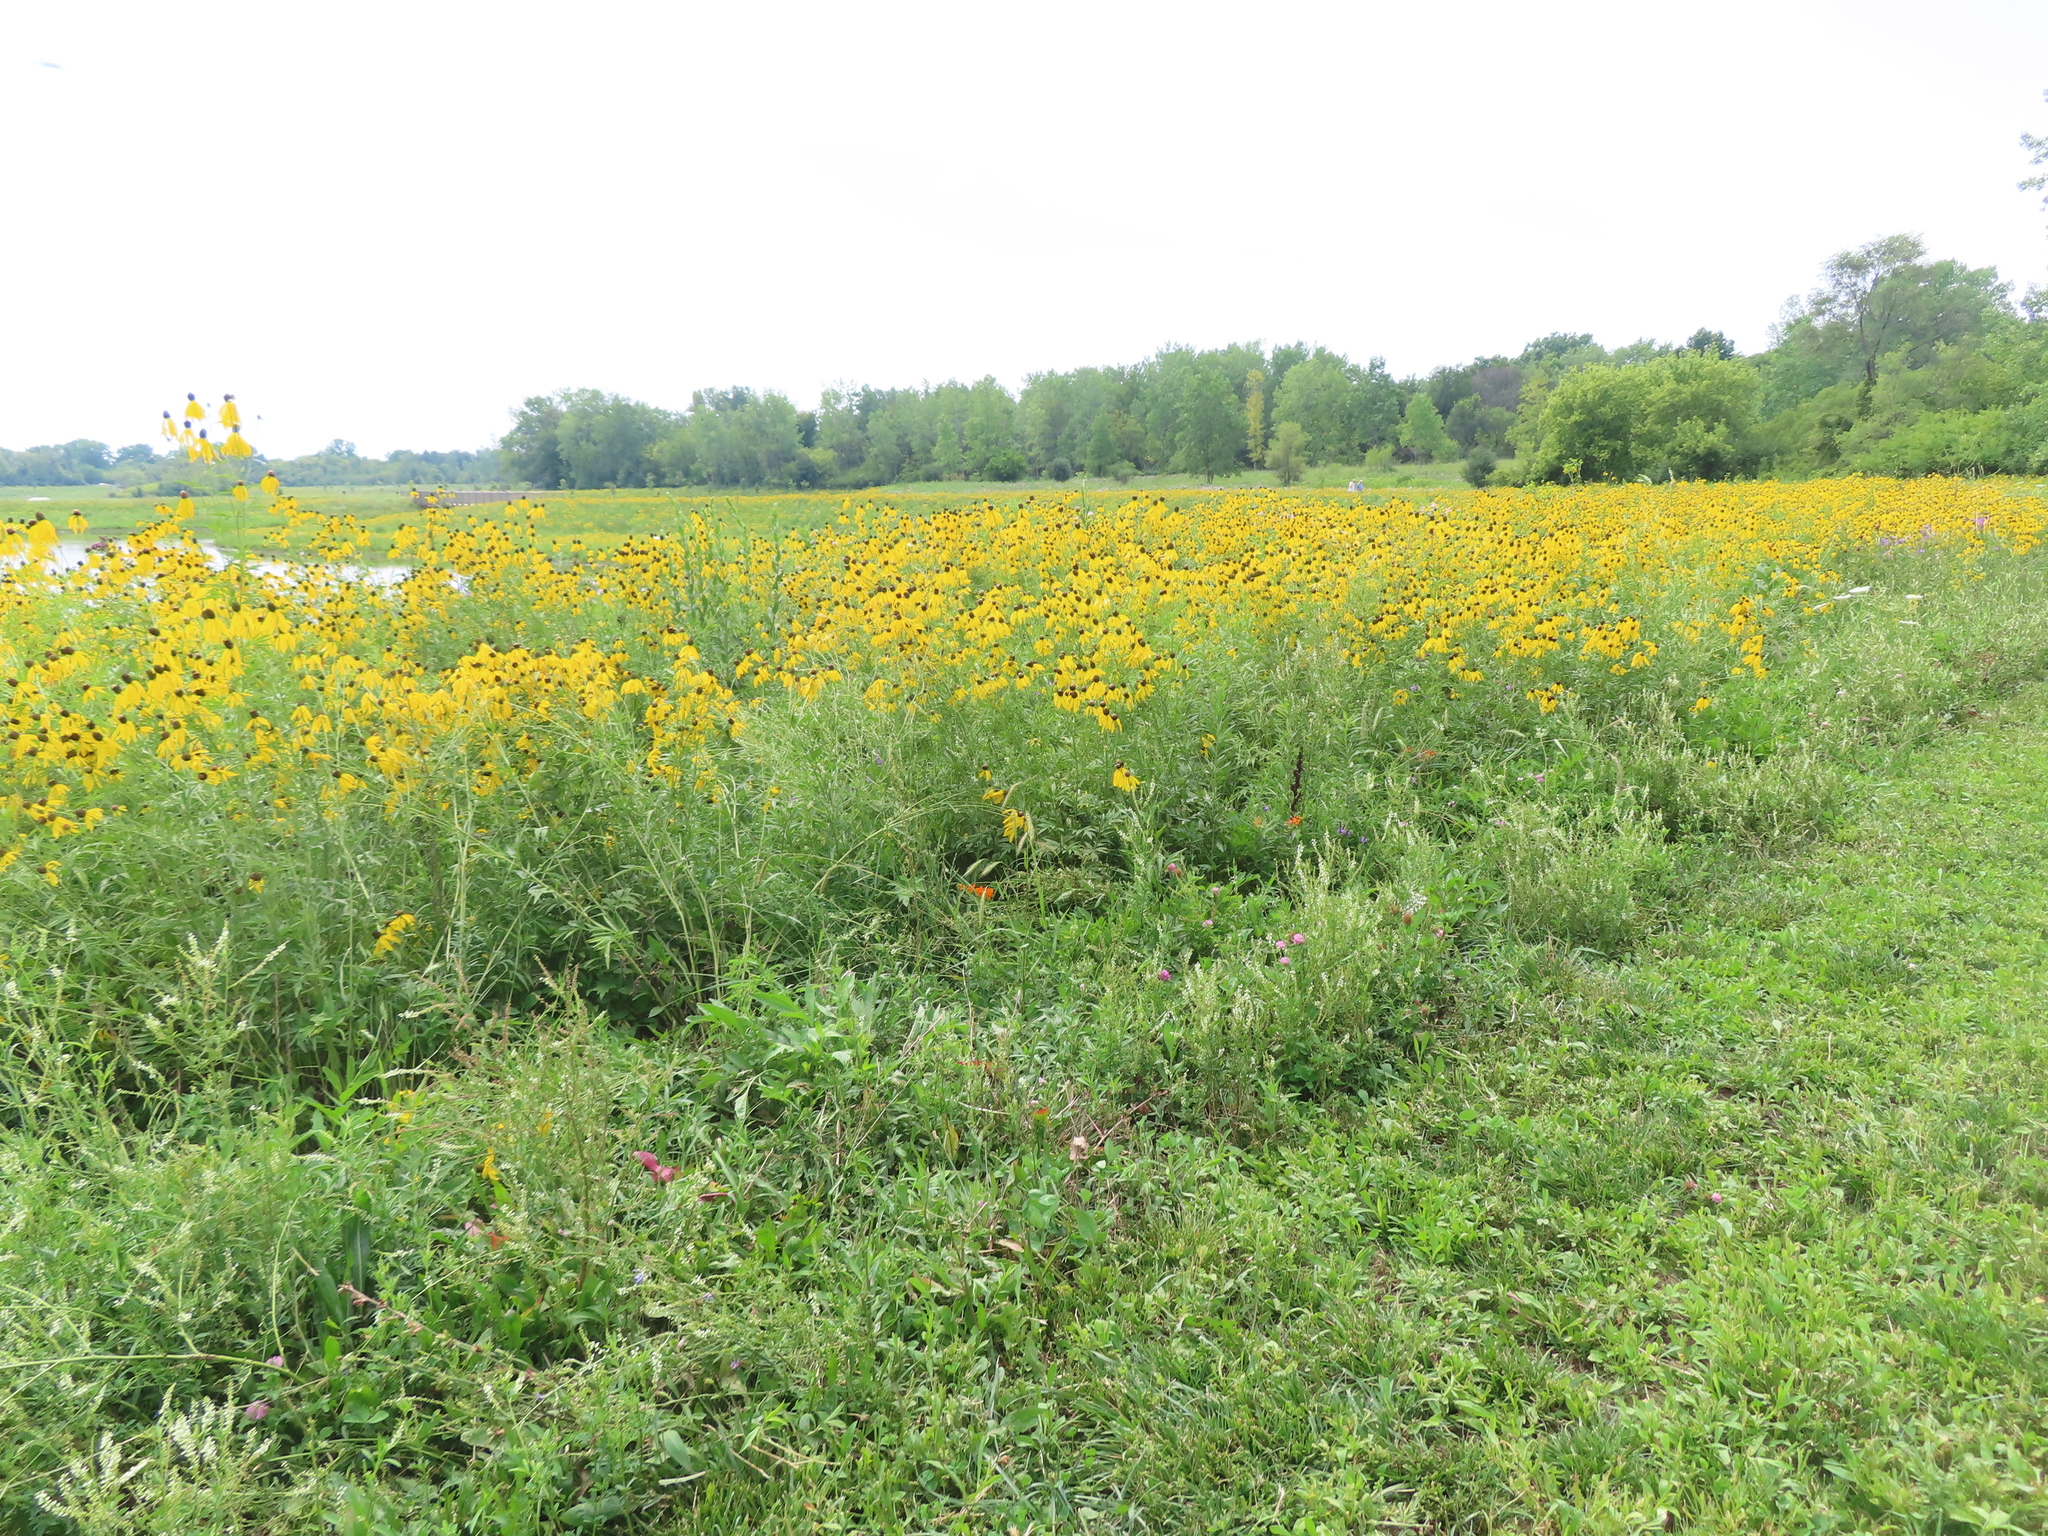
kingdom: Plantae
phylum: Tracheophyta
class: Magnoliopsida
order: Asterales
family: Asteraceae
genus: Ratibida
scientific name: Ratibida pinnata
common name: Drooping prairie-coneflower
